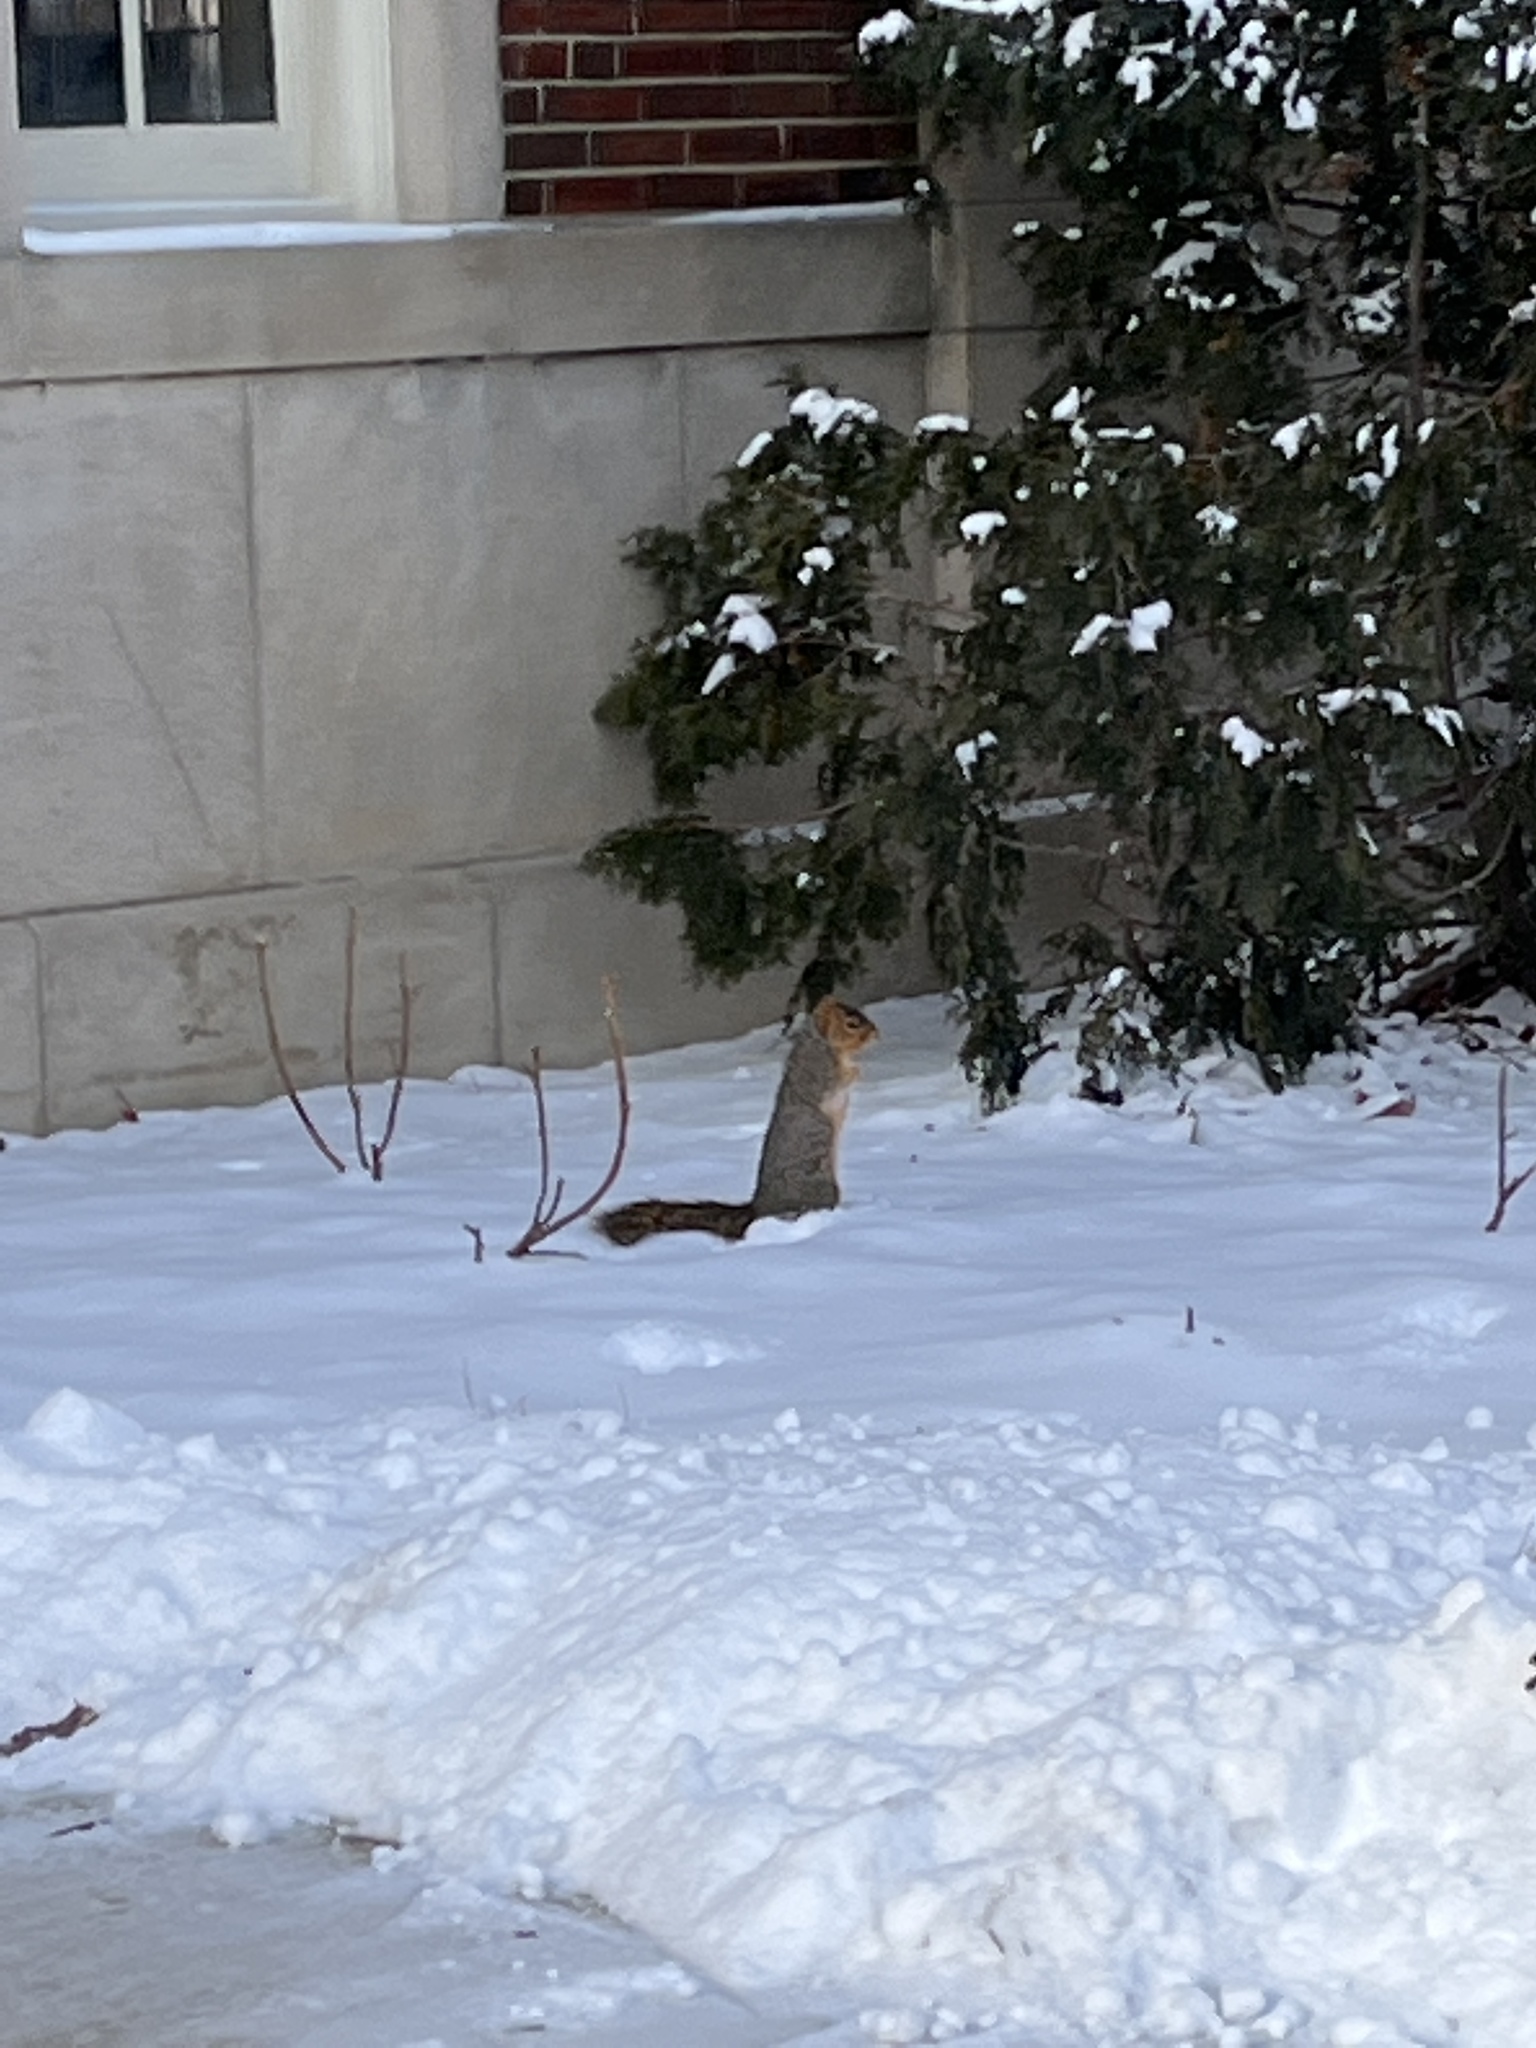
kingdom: Animalia
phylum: Chordata
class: Mammalia
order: Rodentia
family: Sciuridae
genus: Sciurus
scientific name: Sciurus niger
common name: Fox squirrel
